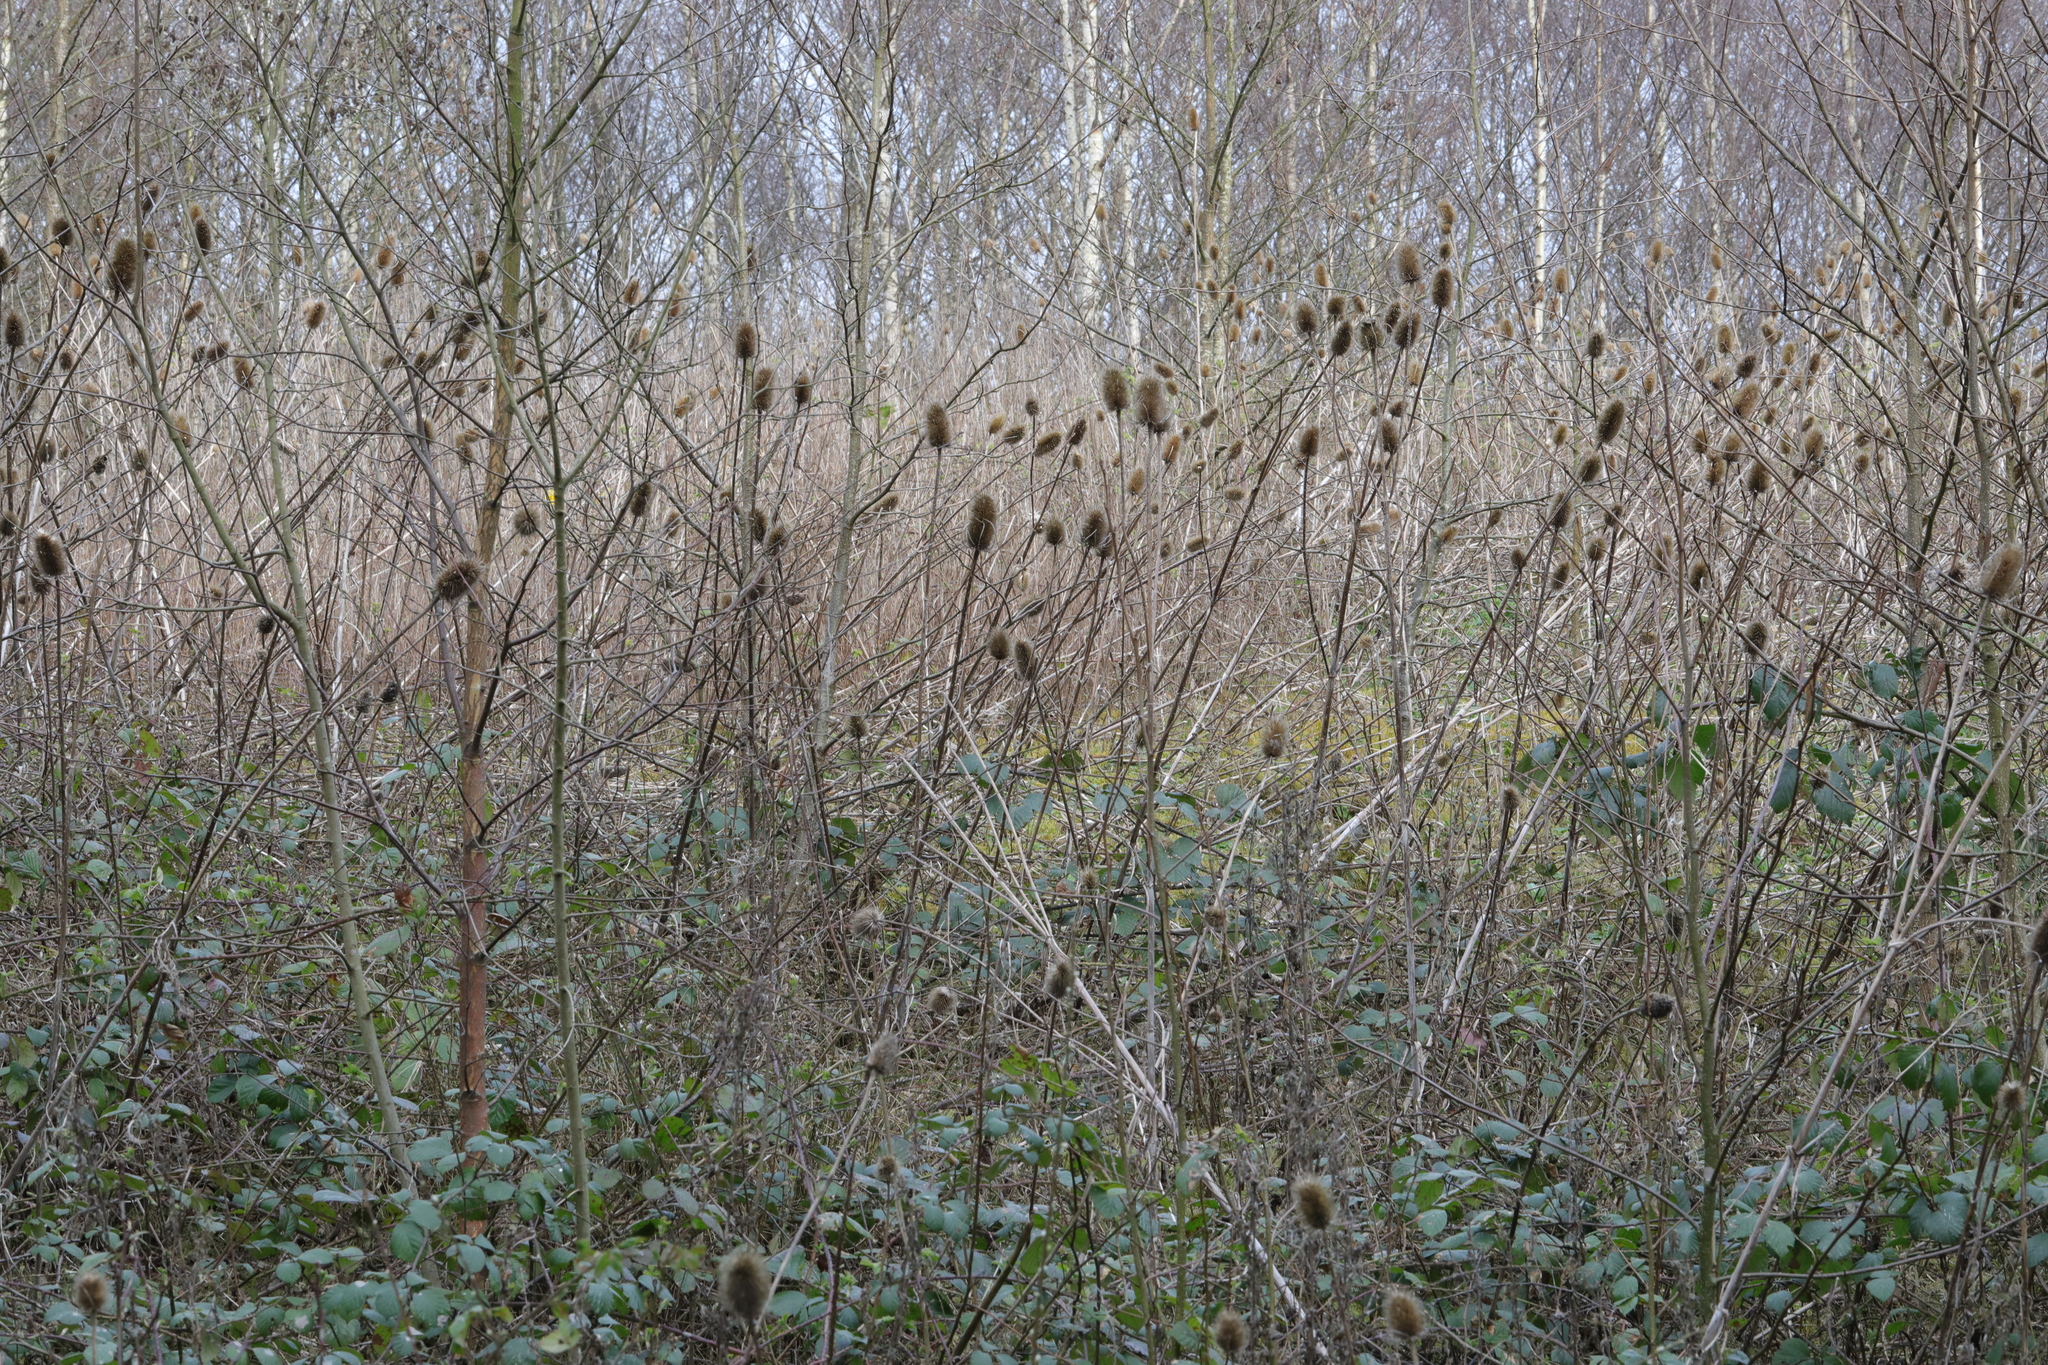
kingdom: Plantae
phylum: Tracheophyta
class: Magnoliopsida
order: Dipsacales
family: Caprifoliaceae
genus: Dipsacus
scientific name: Dipsacus fullonum
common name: Teasel
